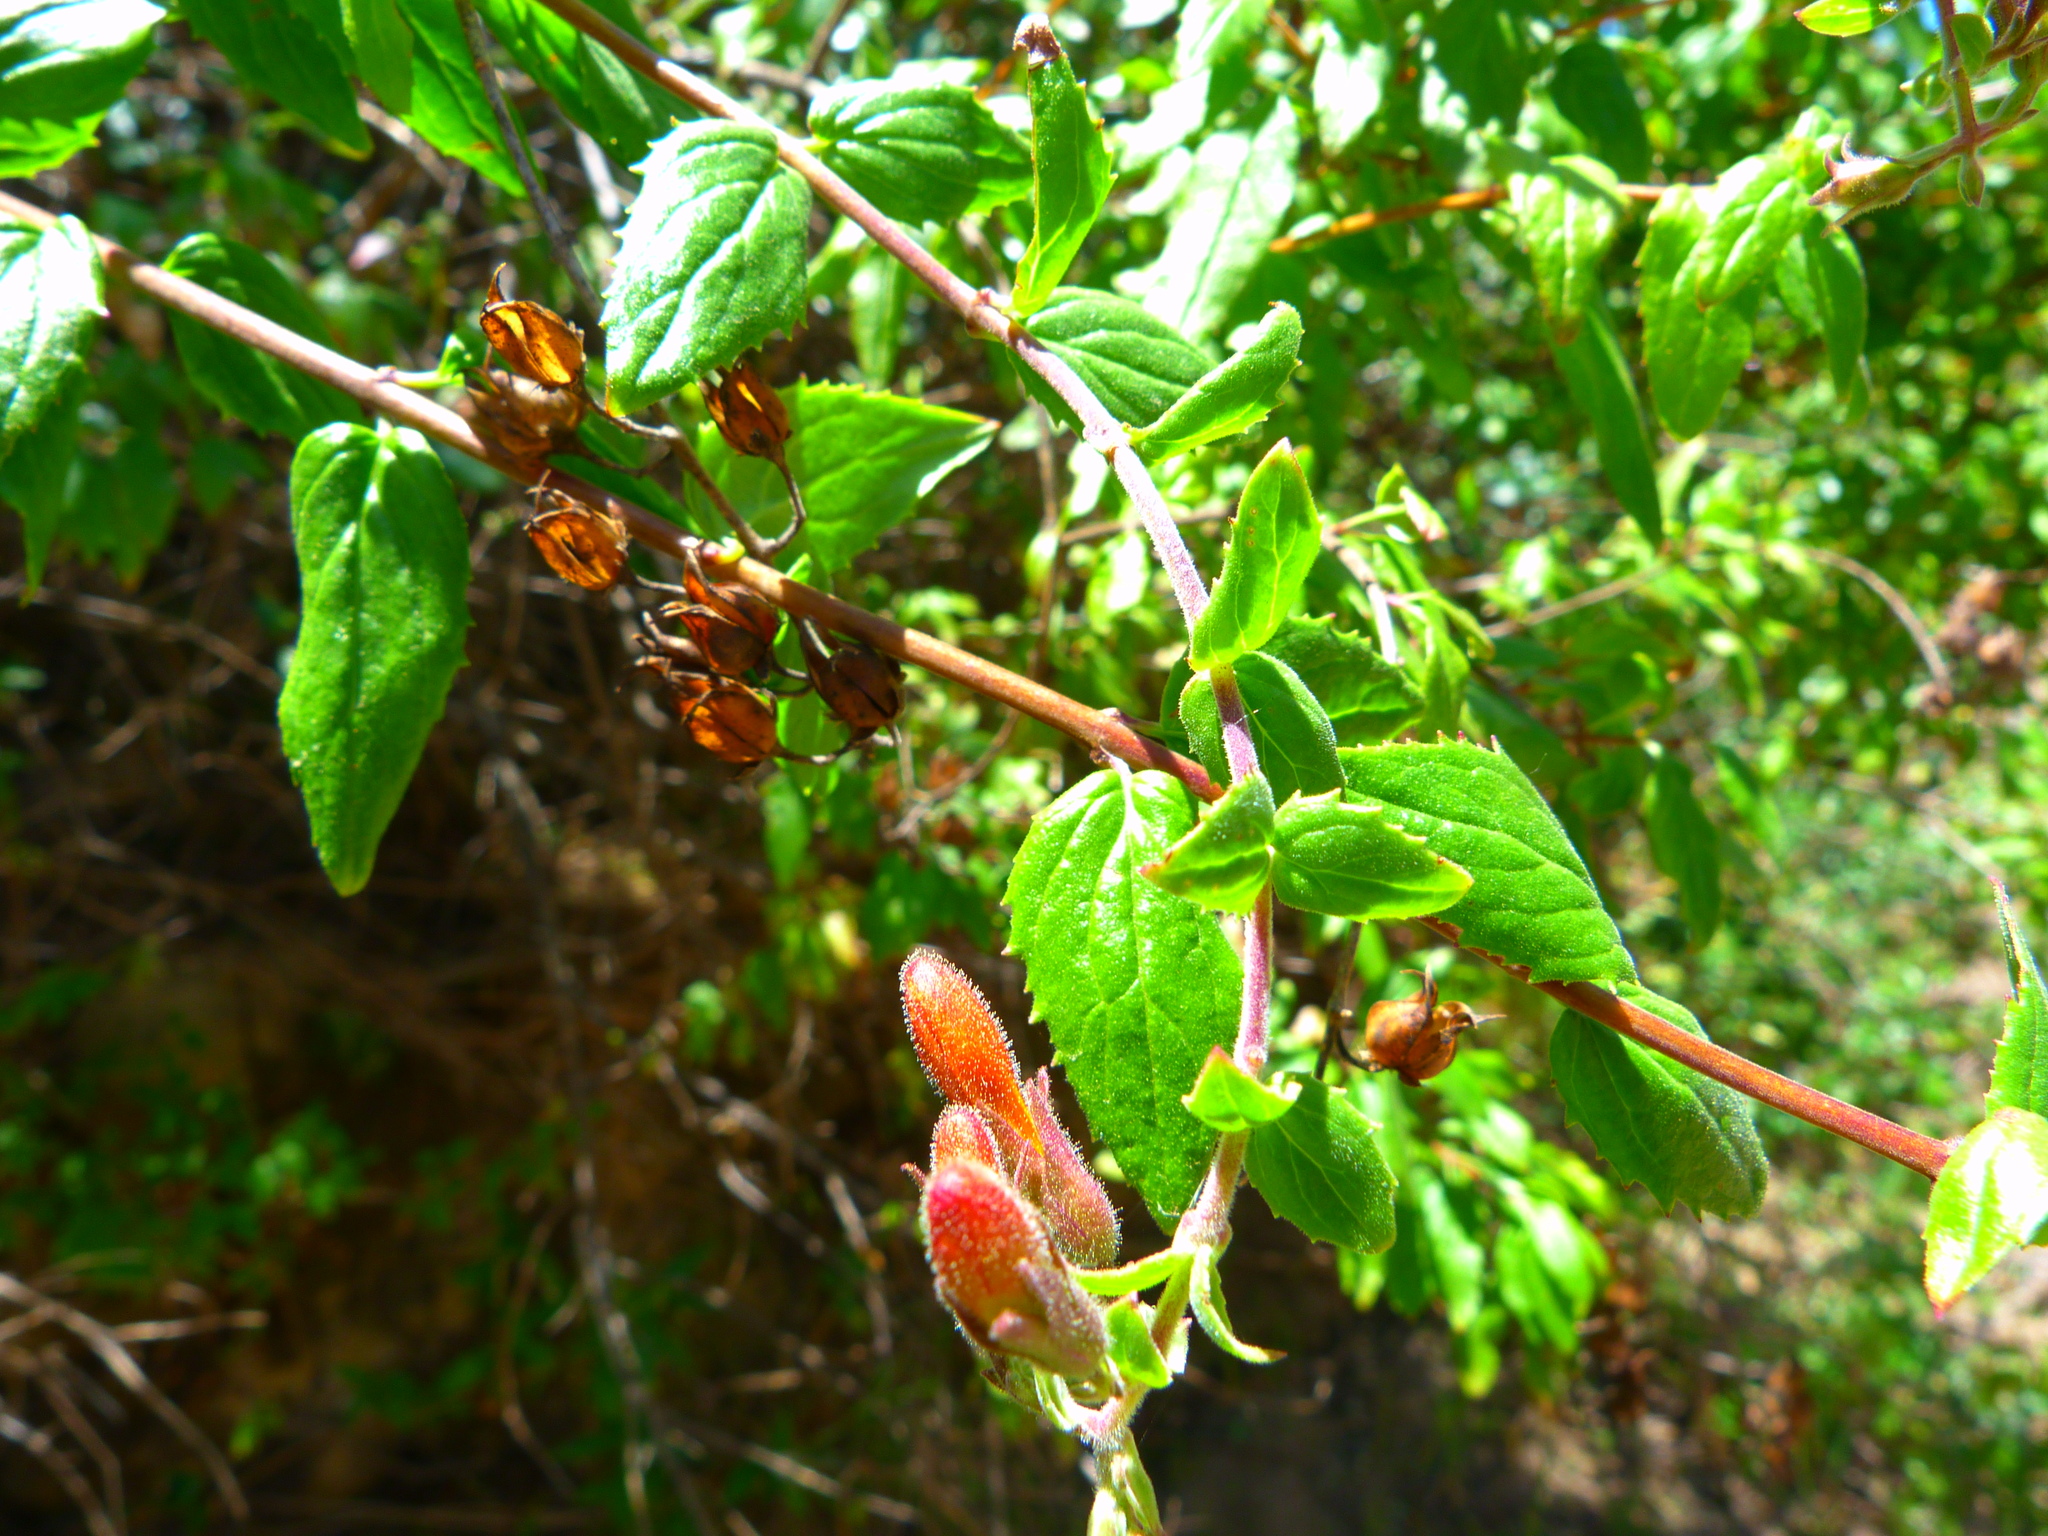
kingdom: Plantae
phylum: Tracheophyta
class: Magnoliopsida
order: Lamiales
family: Plantaginaceae
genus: Keckiella
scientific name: Keckiella cordifolia
